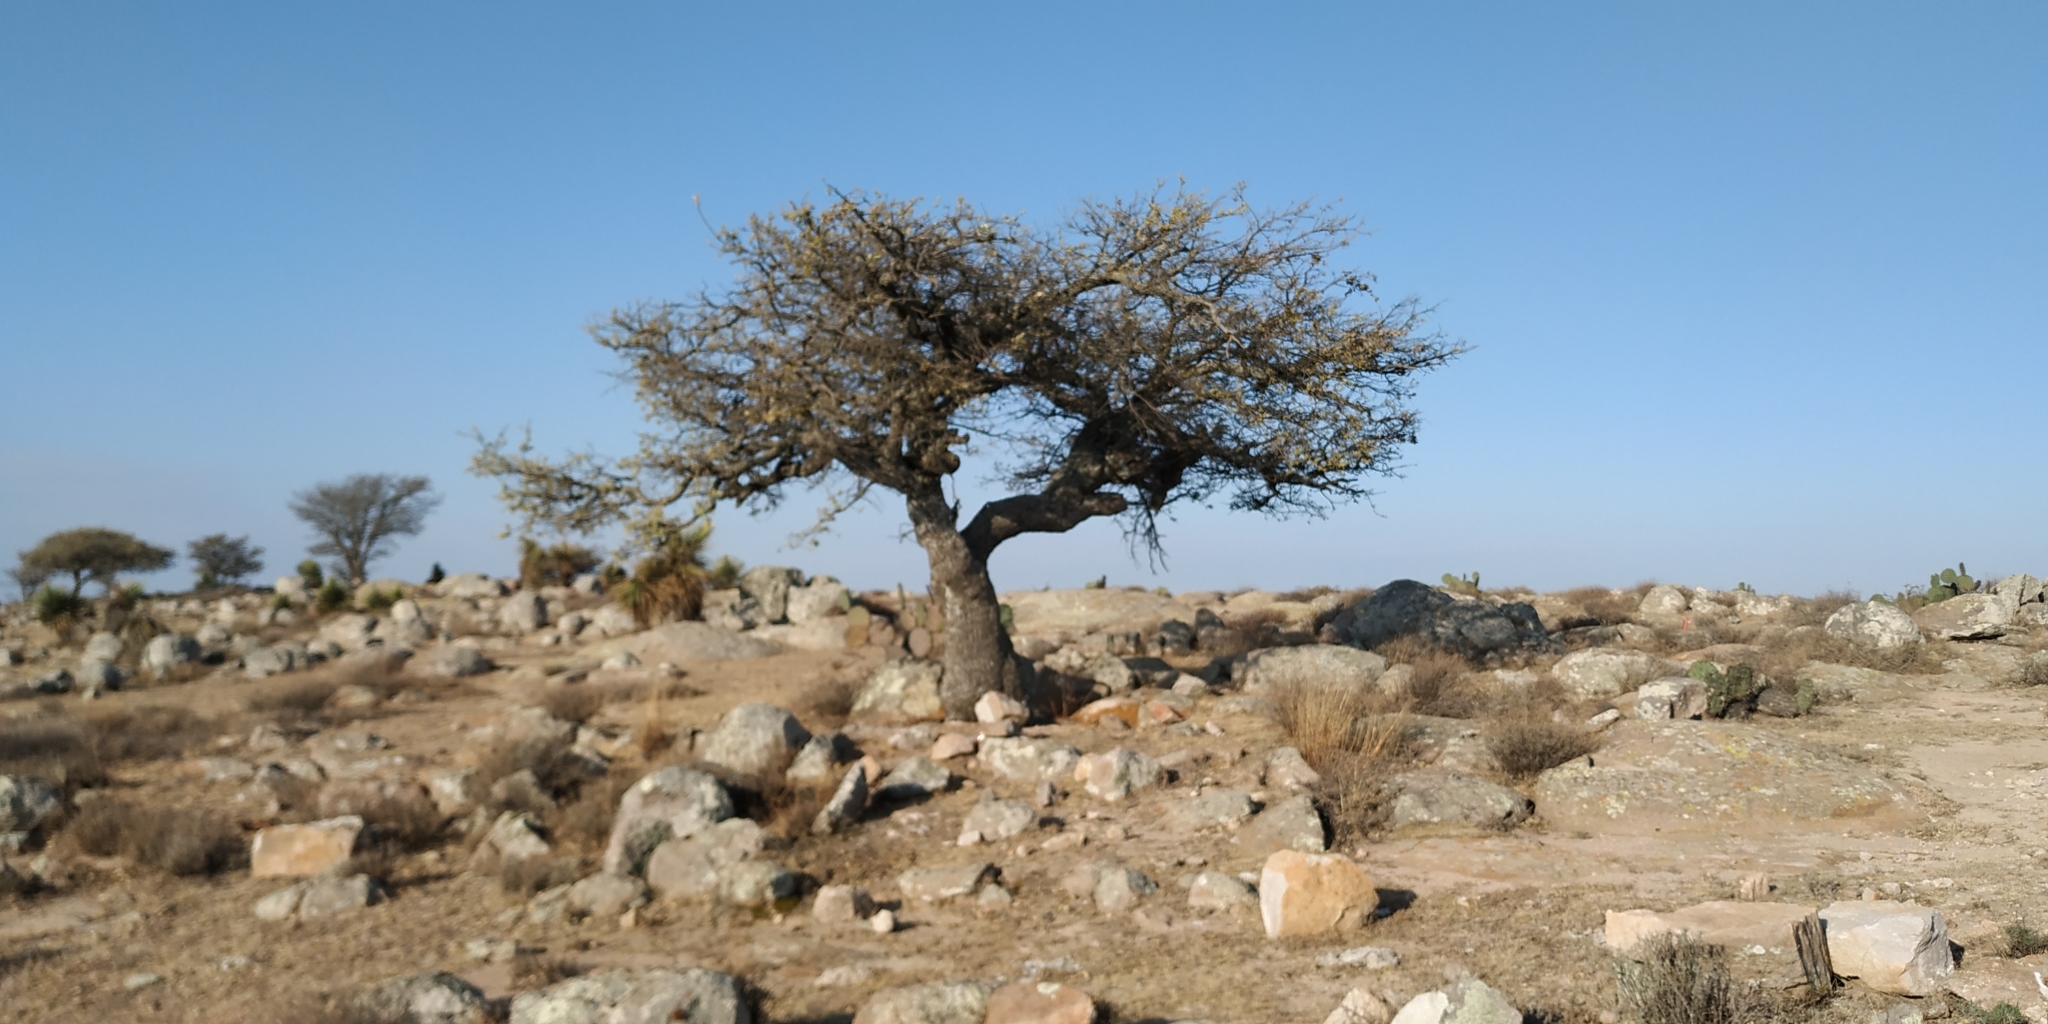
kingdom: Plantae
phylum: Tracheophyta
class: Magnoliopsida
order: Fagales
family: Fagaceae
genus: Quercus
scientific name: Quercus
